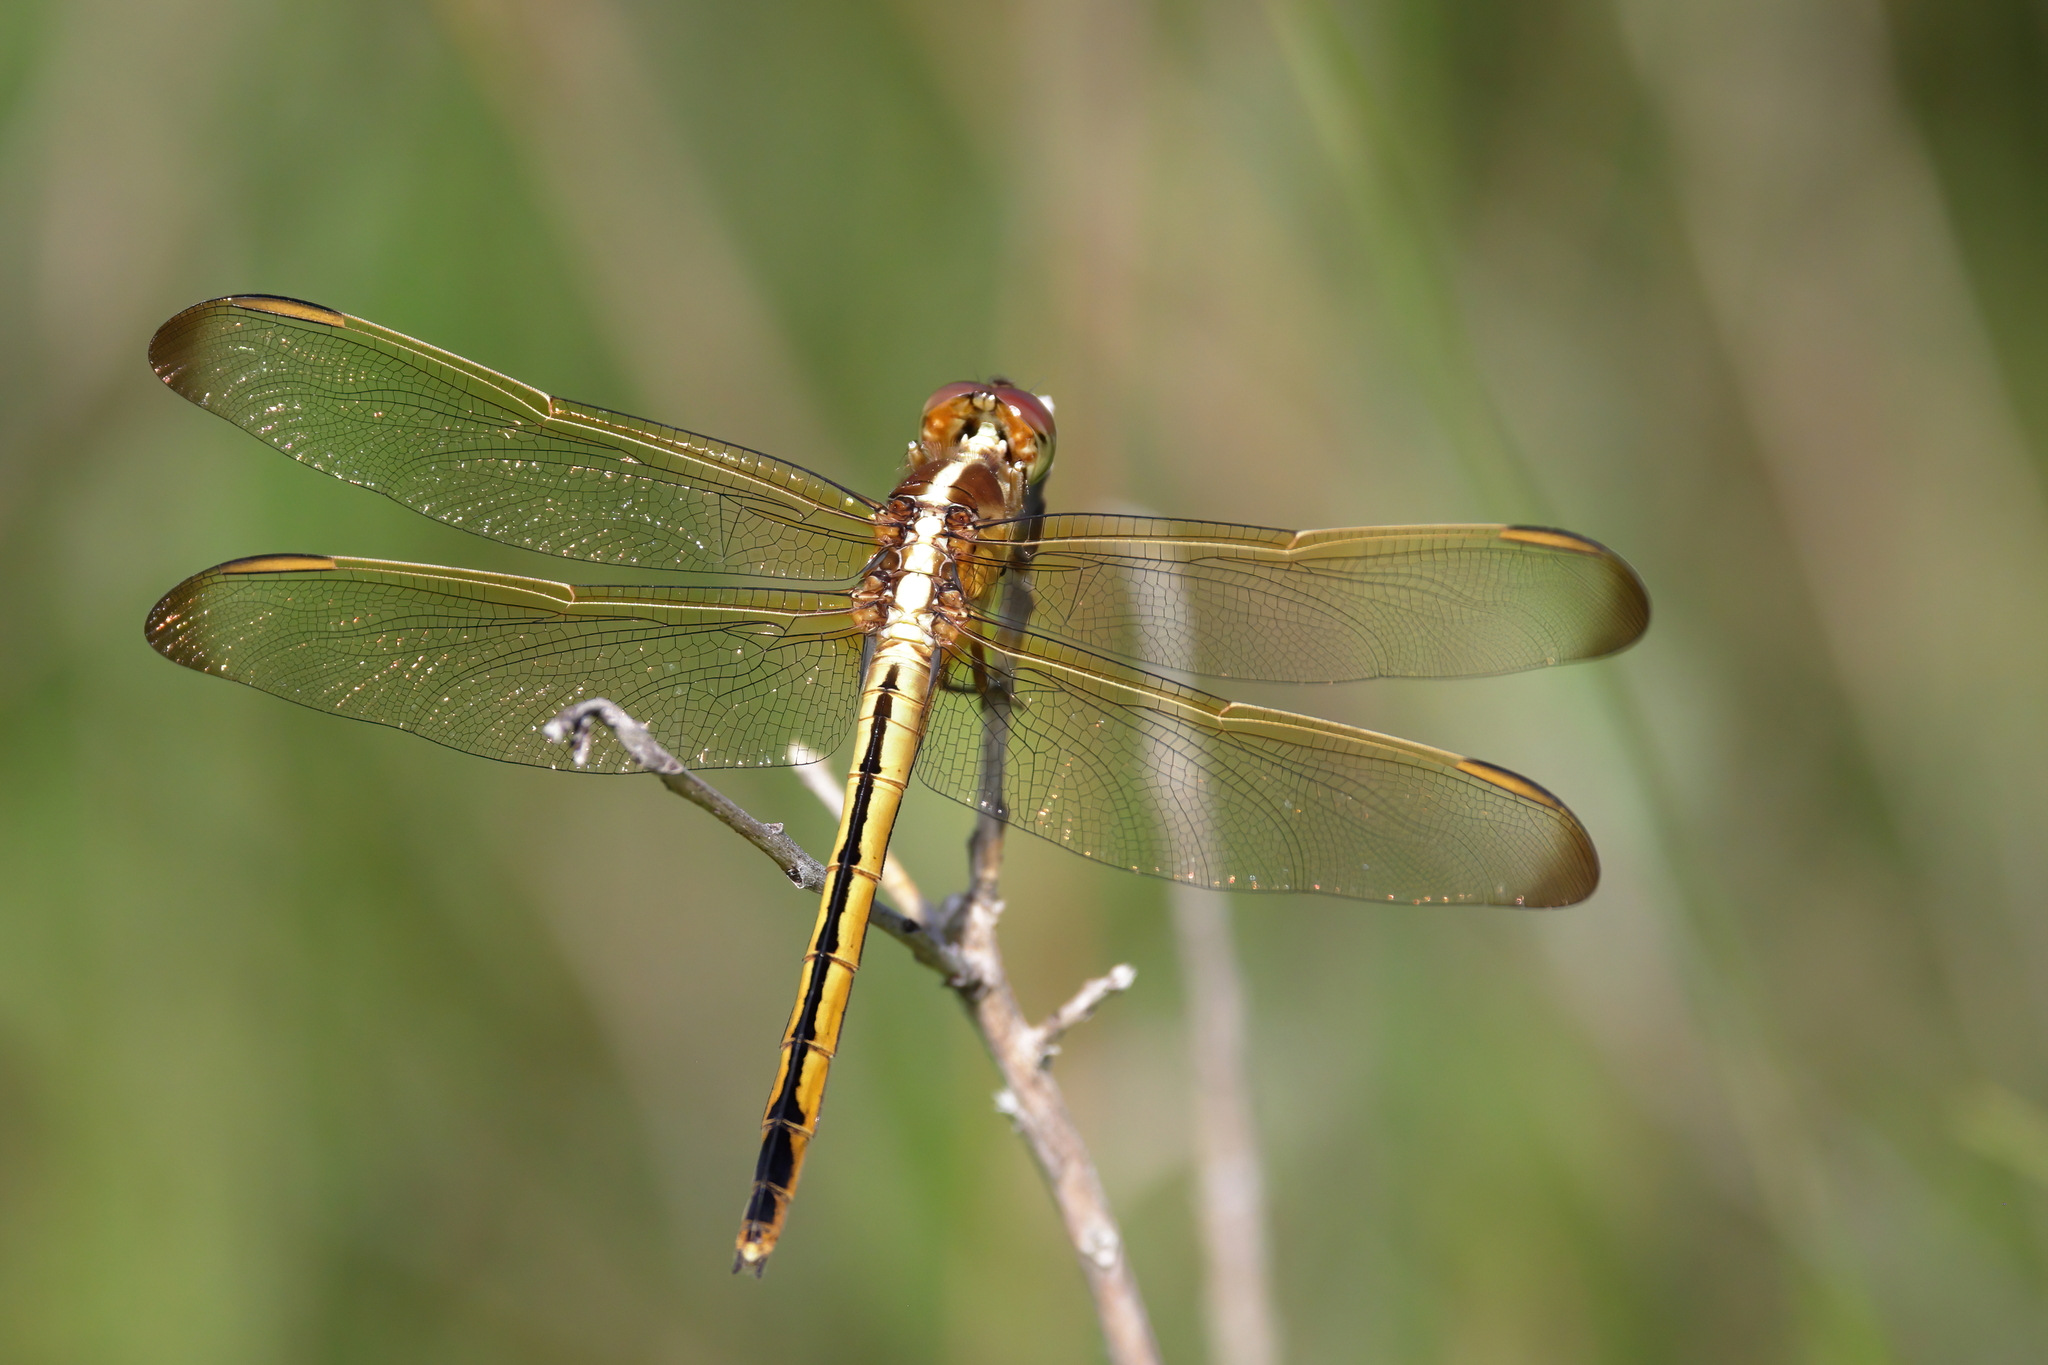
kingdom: Animalia
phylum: Arthropoda
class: Insecta
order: Odonata
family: Libellulidae
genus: Libellula
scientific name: Libellula needhami
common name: Needham's skimmer
